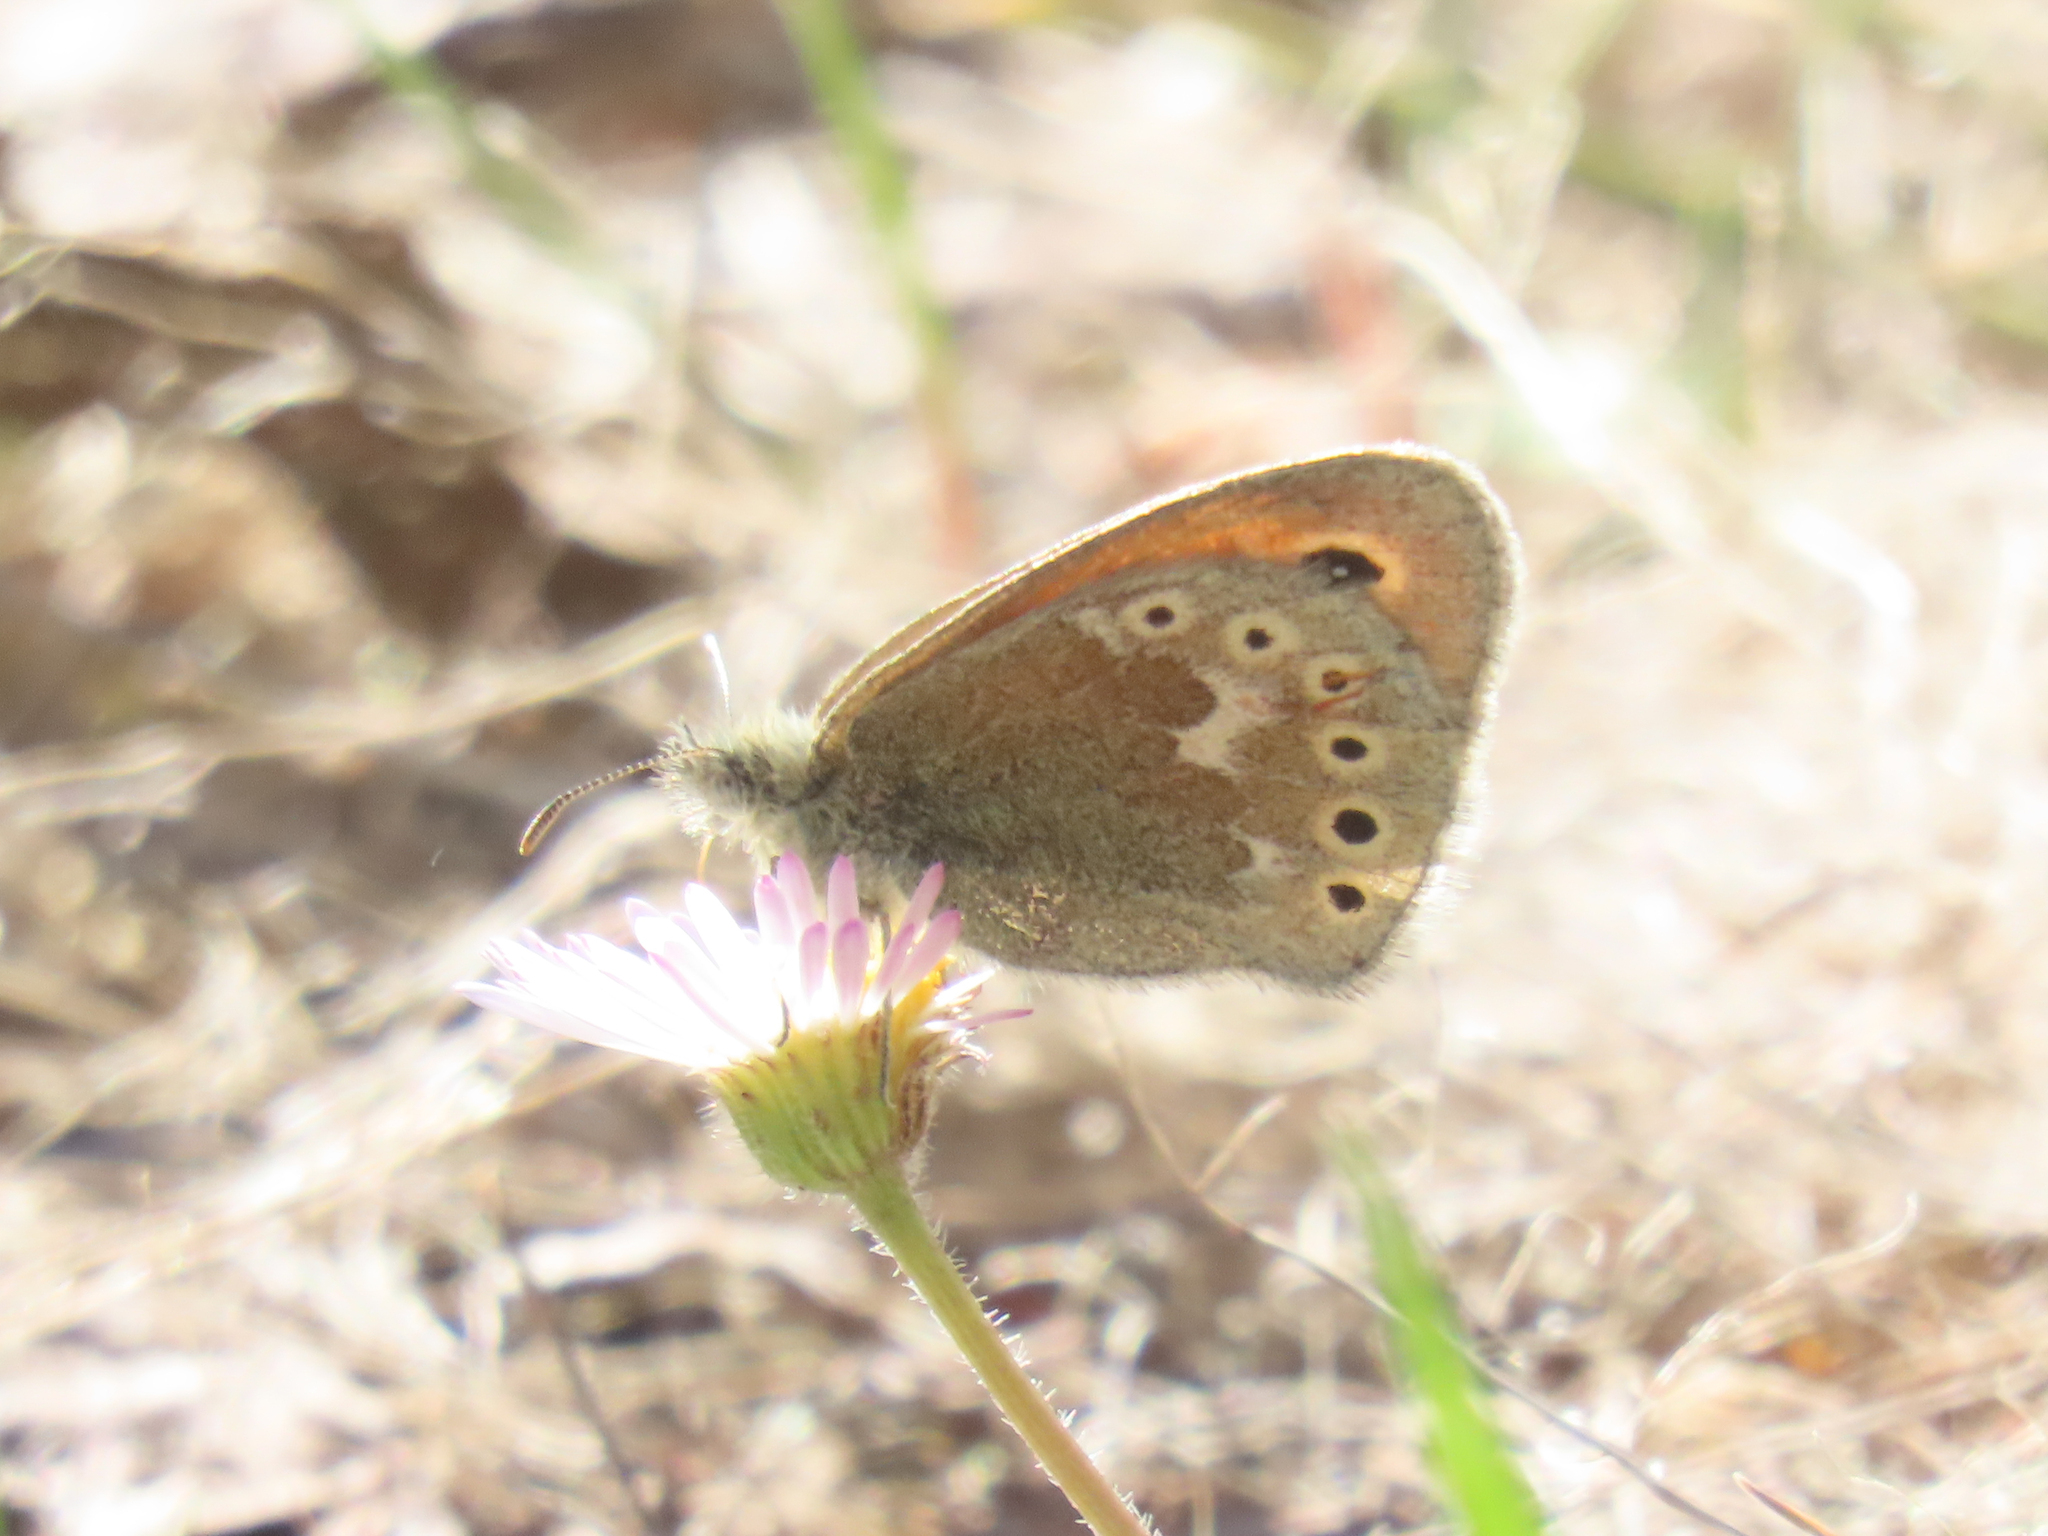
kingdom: Animalia
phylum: Arthropoda
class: Insecta
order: Lepidoptera
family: Nymphalidae
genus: Coenonympha
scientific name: Coenonympha california
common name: Common ringlet
